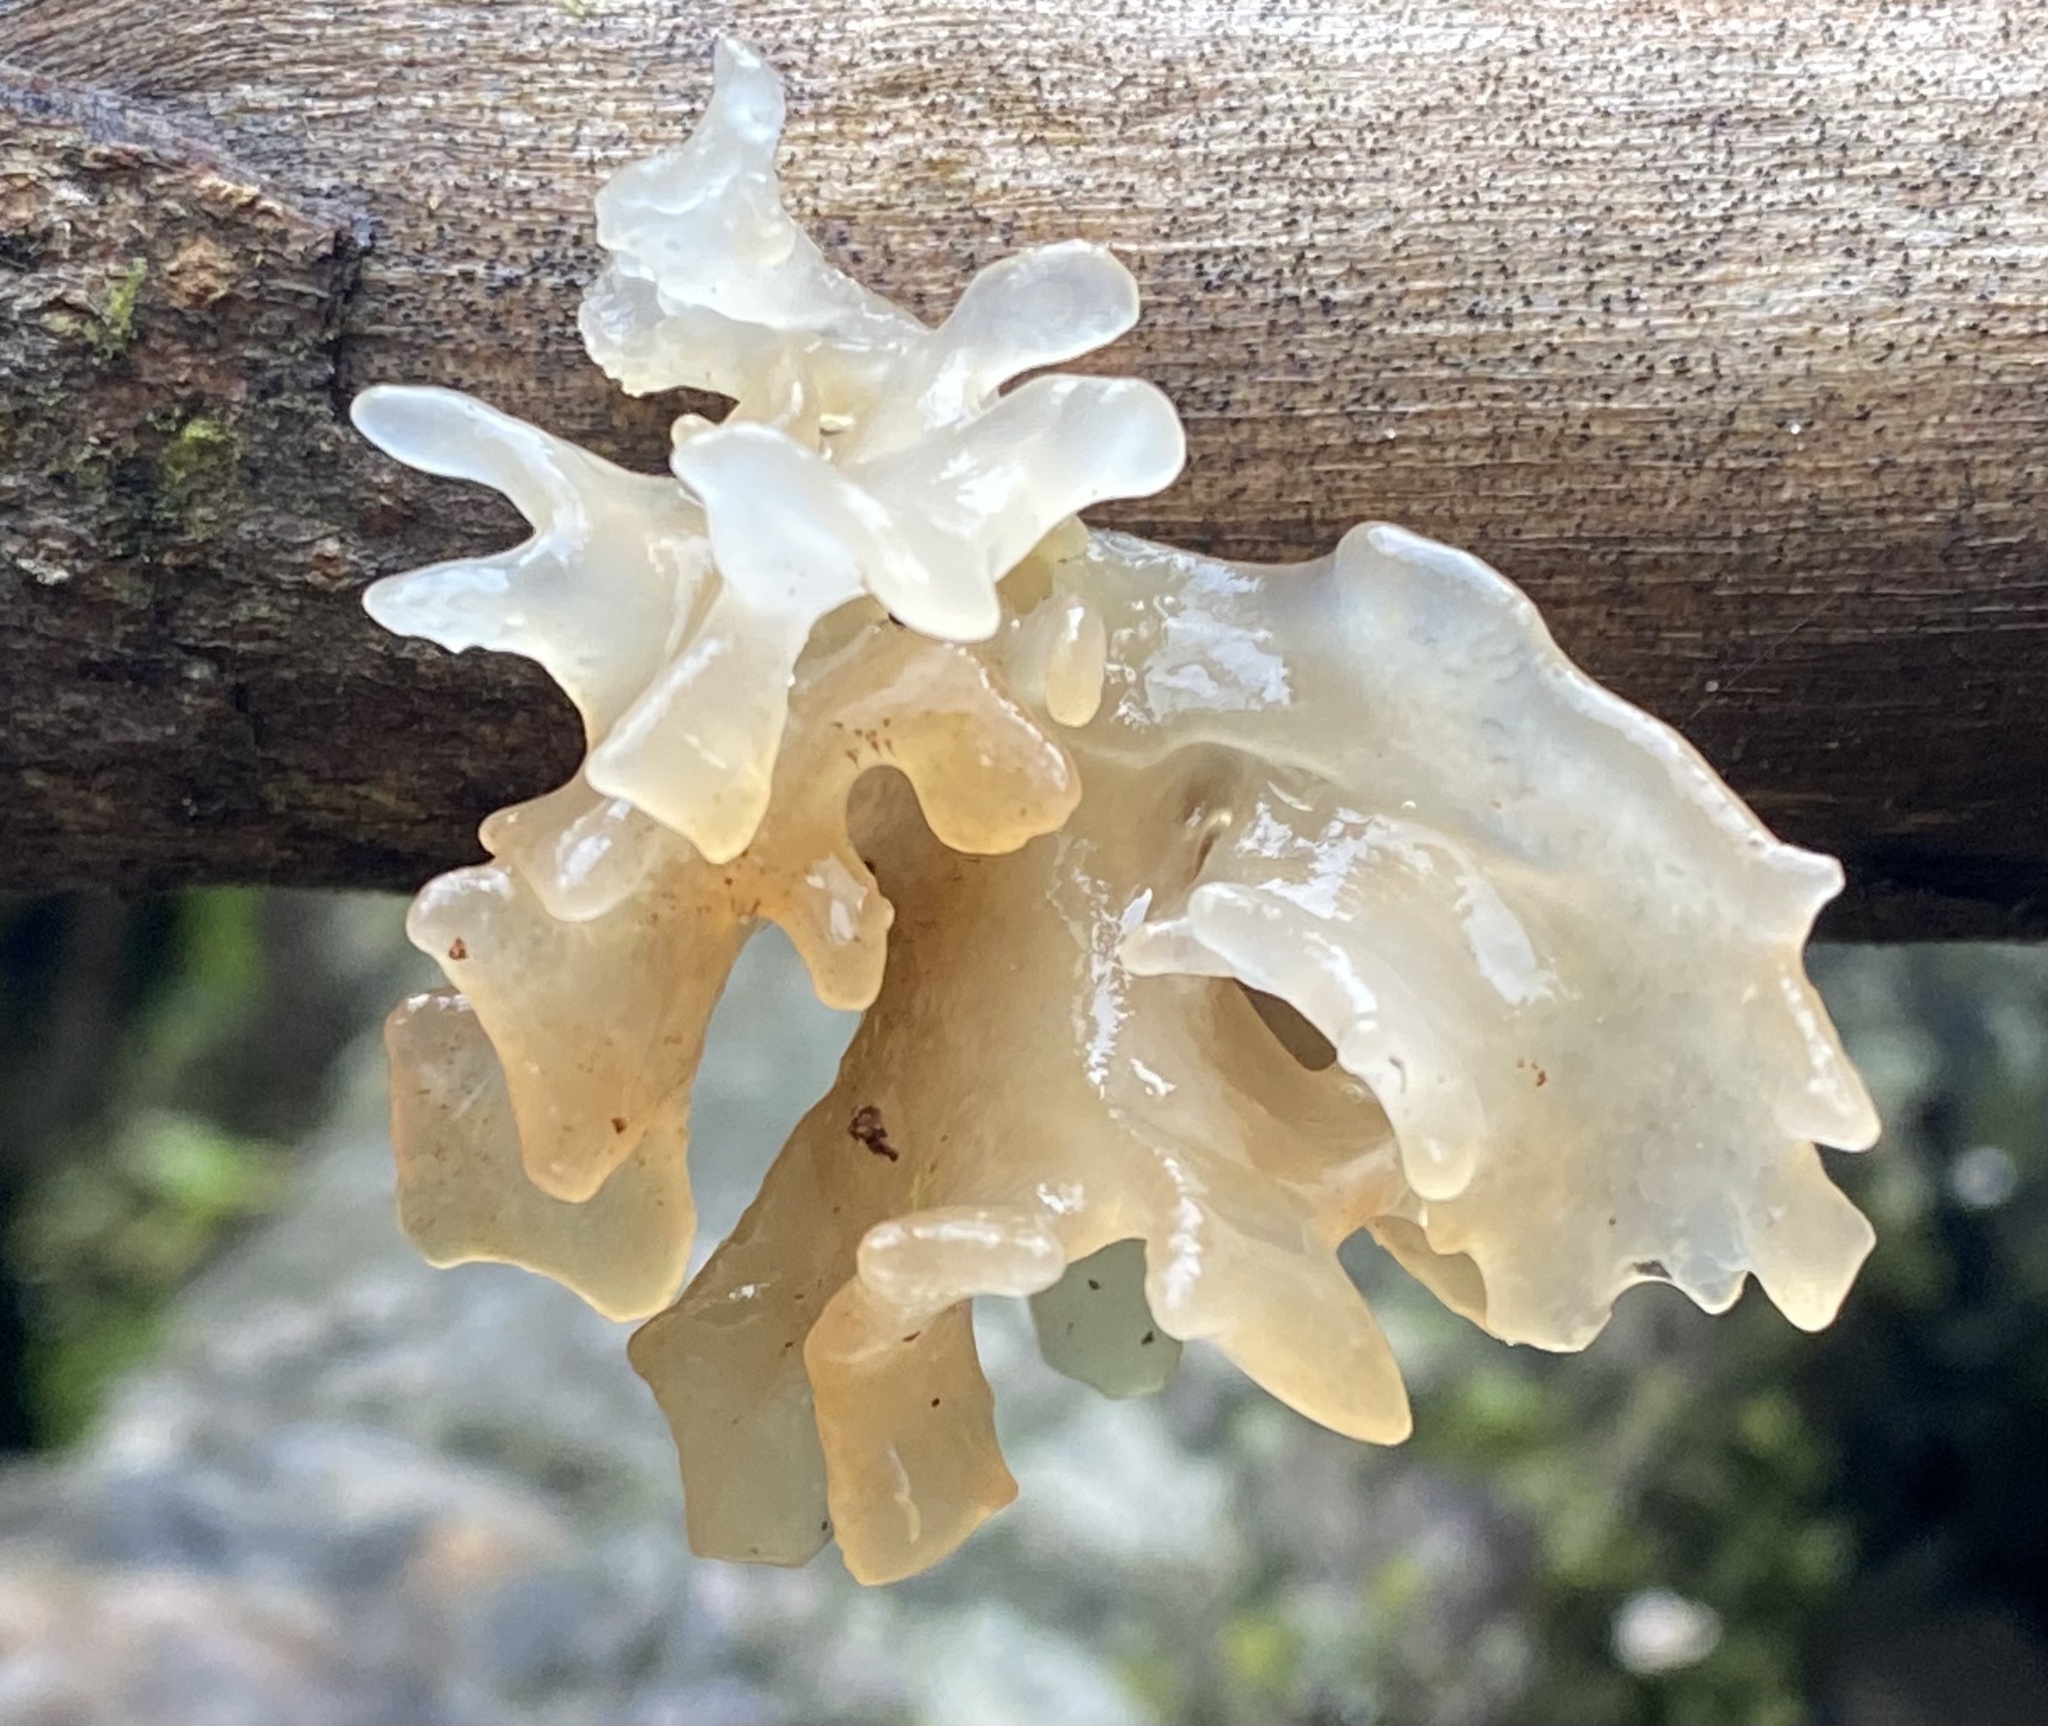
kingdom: Fungi
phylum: Basidiomycota
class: Tremellomycetes
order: Tremellales
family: Tremellaceae
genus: Tremella
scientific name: Tremella fuciformis
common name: Snow fungus
